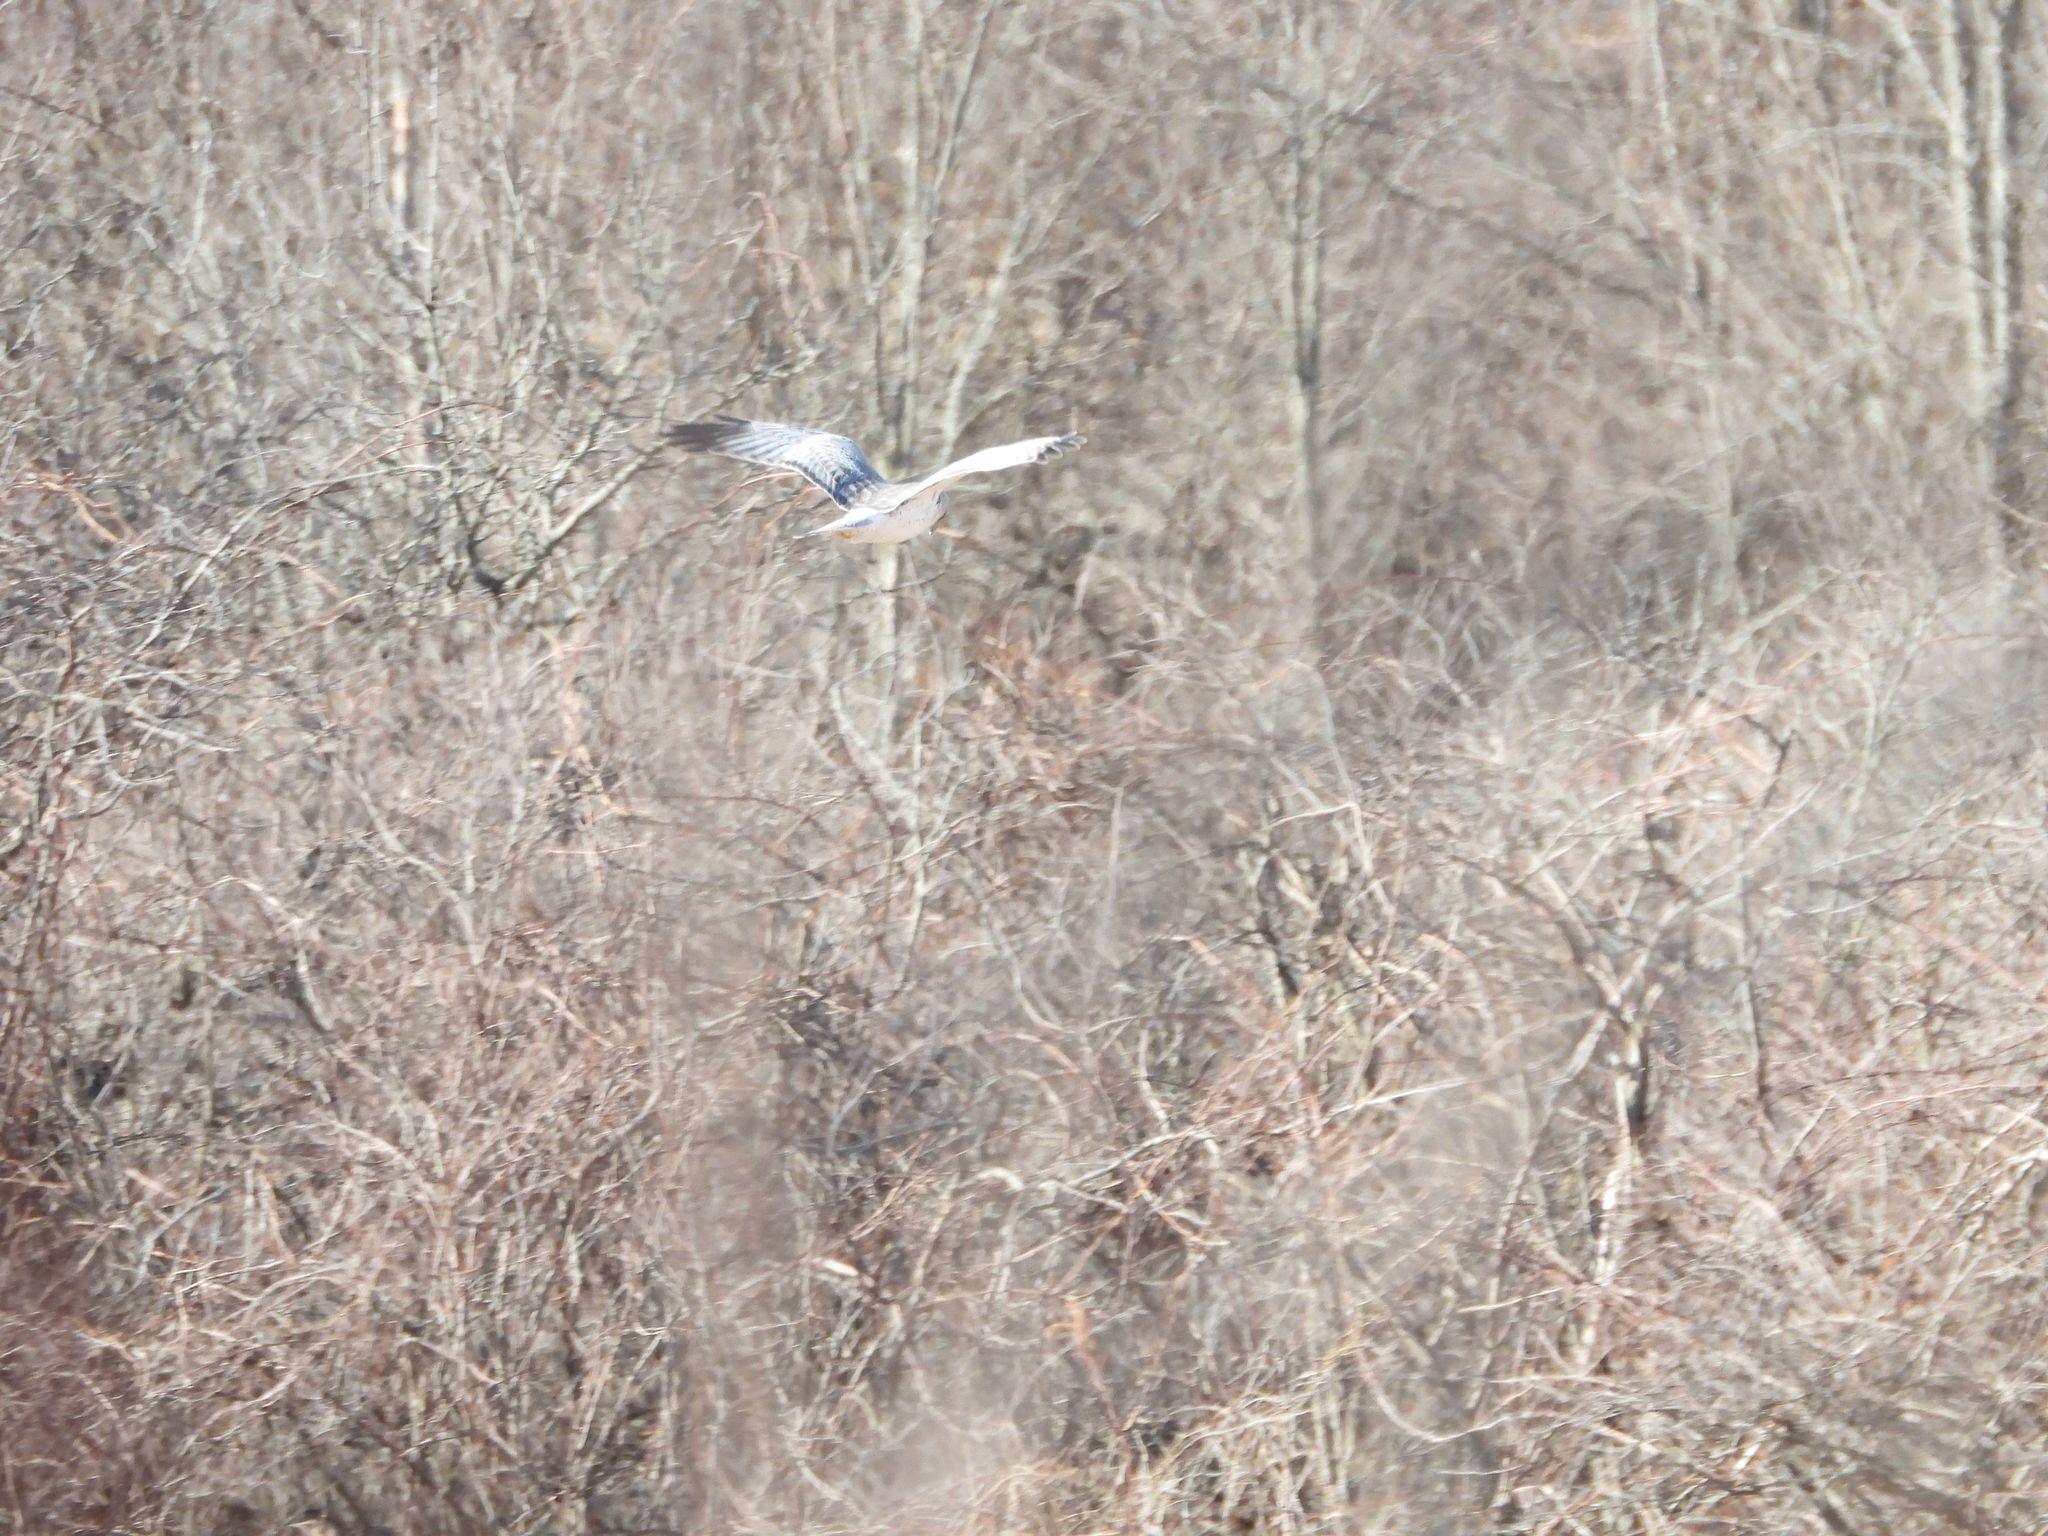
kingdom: Animalia
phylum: Chordata
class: Aves
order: Accipitriformes
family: Accipitridae
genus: Circus
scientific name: Circus cyaneus
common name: Hen harrier
